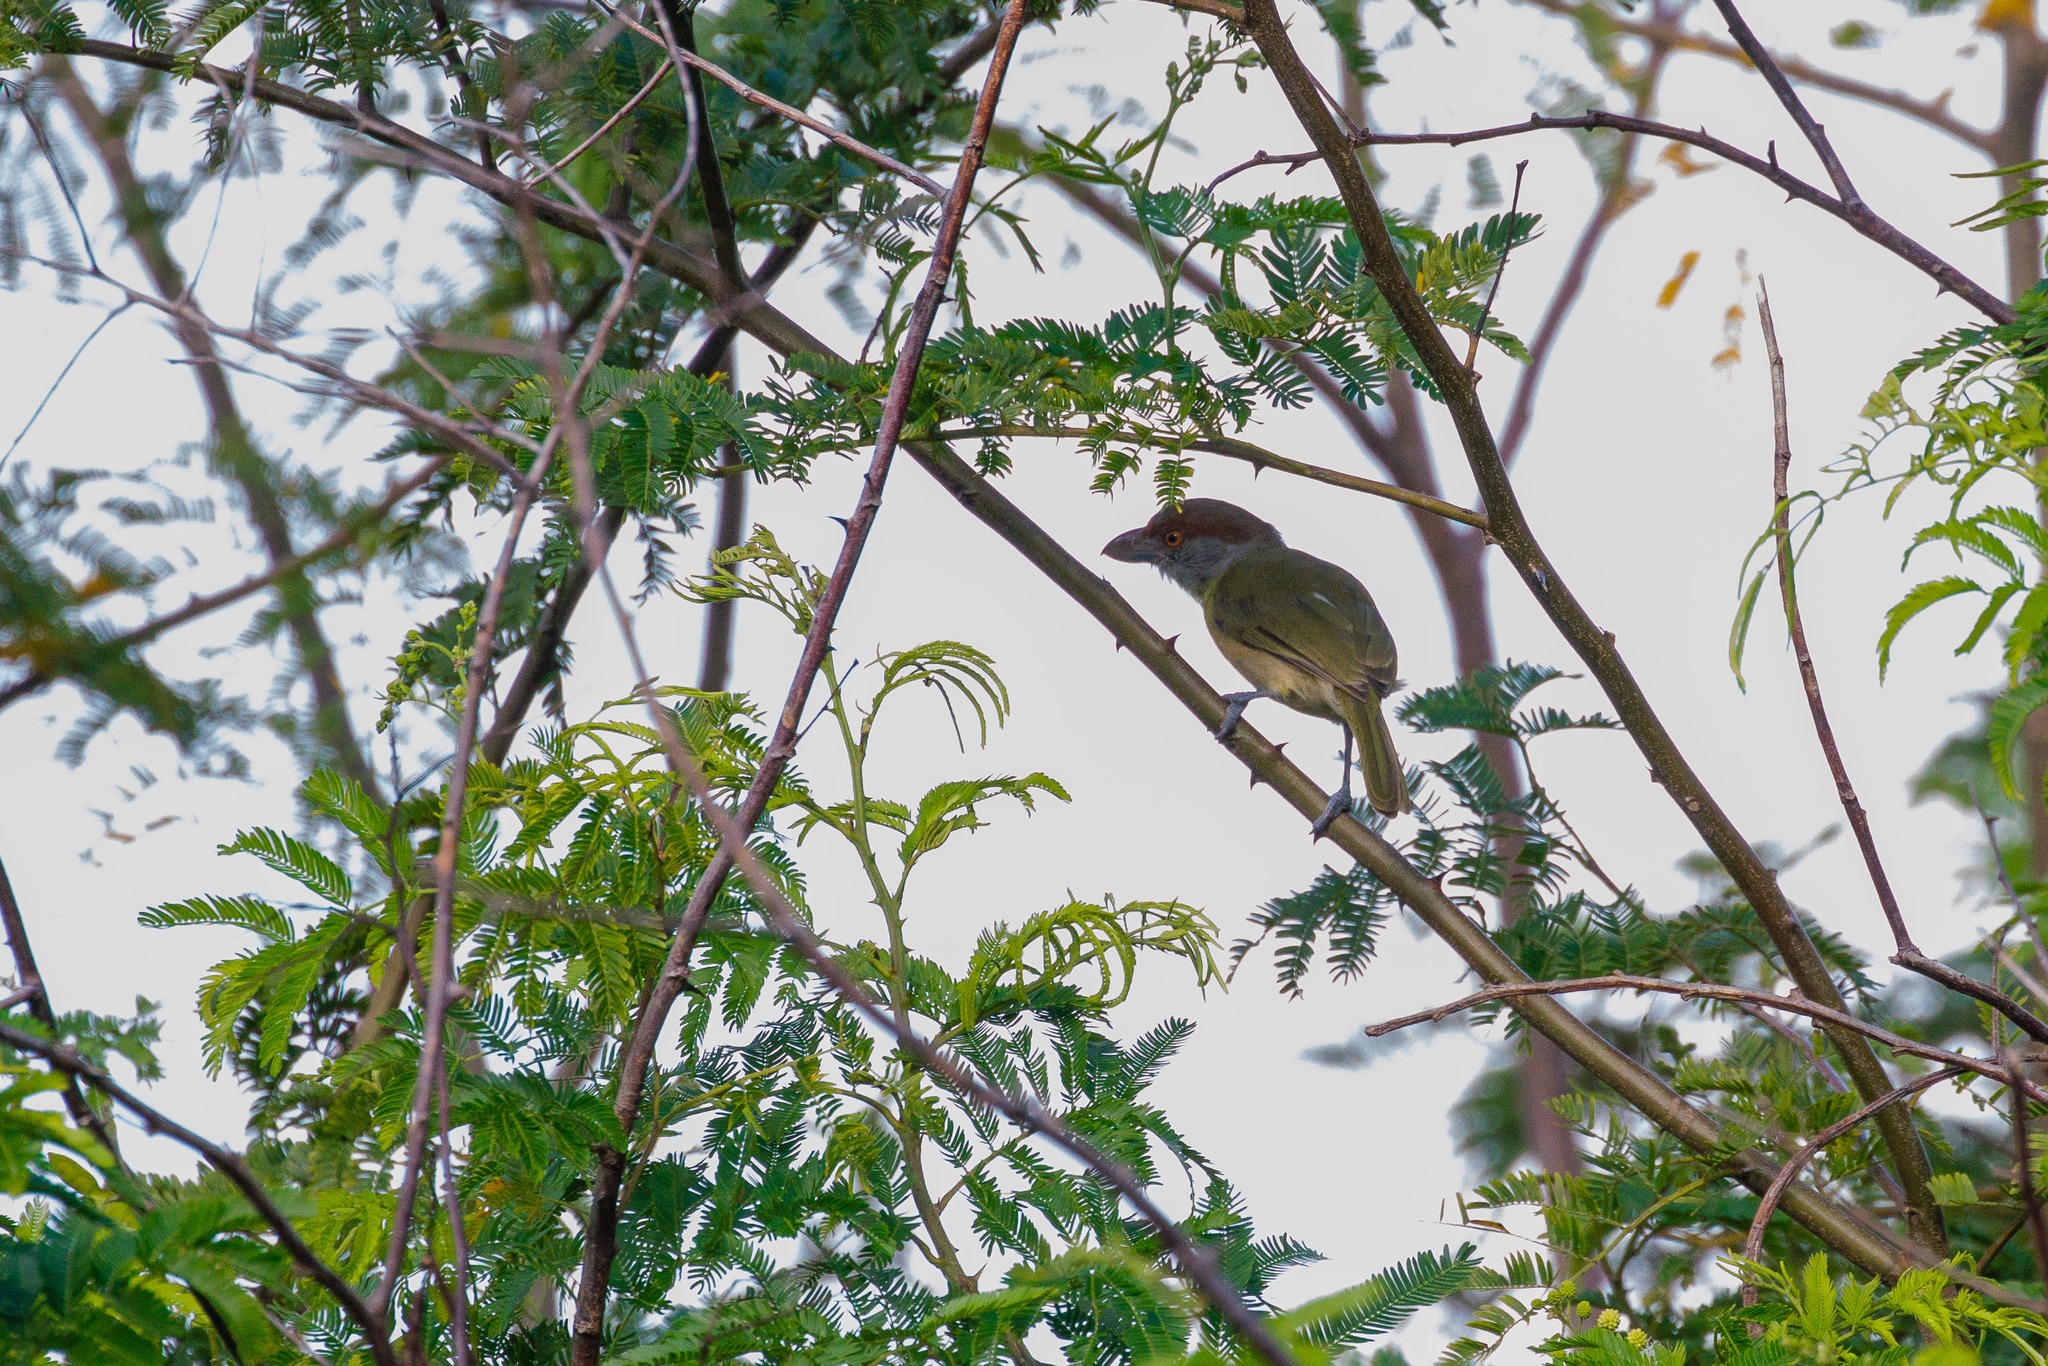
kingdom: Animalia
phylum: Chordata
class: Aves
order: Passeriformes
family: Vireonidae
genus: Cyclarhis
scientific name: Cyclarhis gujanensis
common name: Rufous-browed peppershrike
